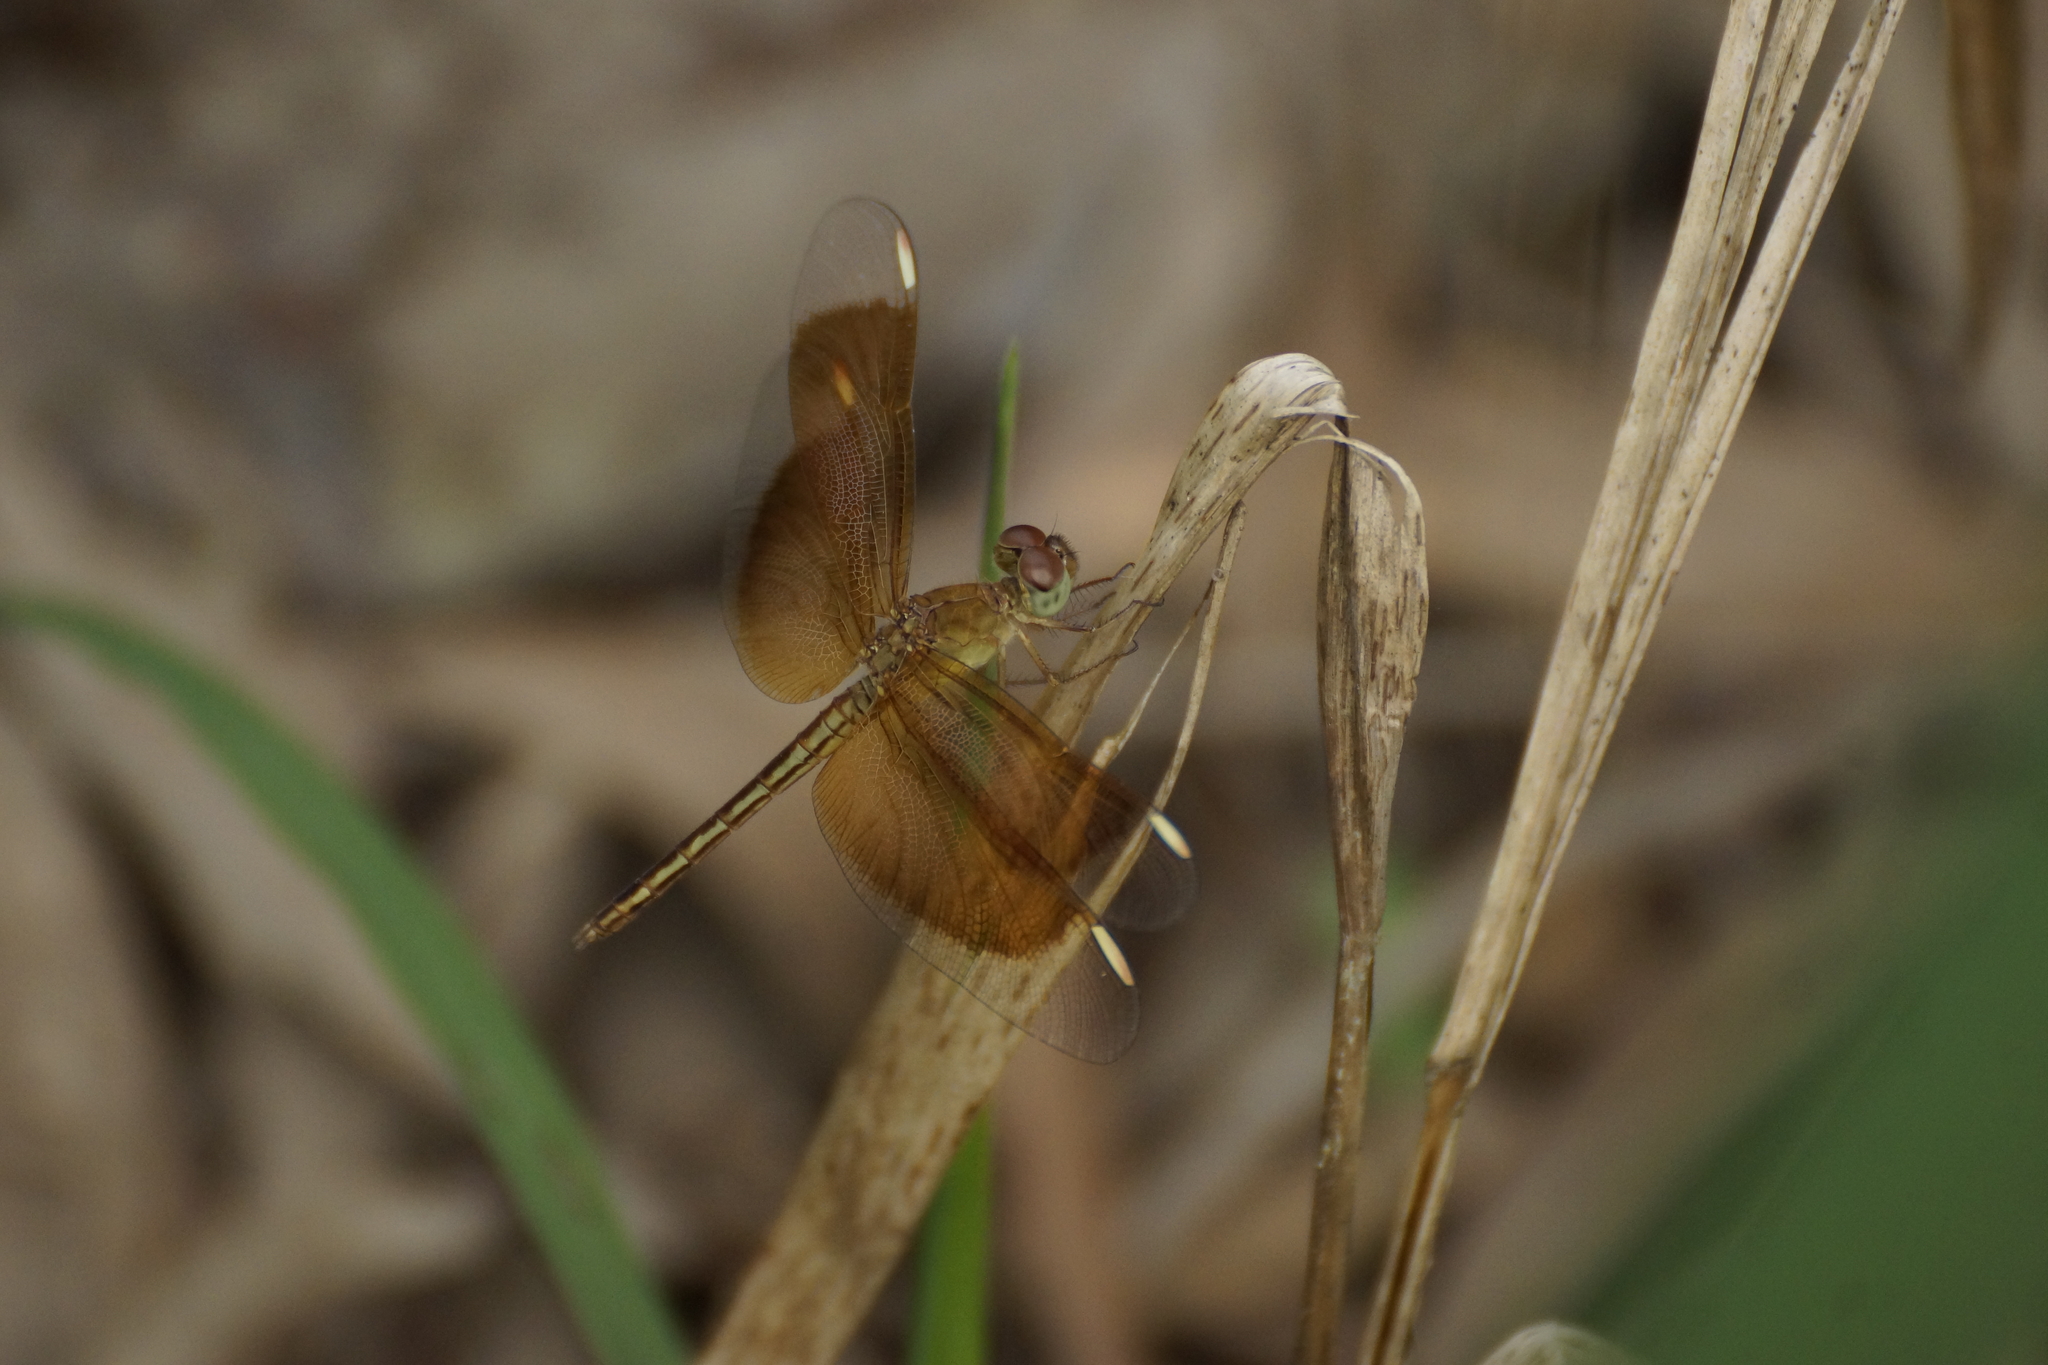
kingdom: Animalia
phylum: Arthropoda
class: Insecta
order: Odonata
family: Libellulidae
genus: Neurothemis
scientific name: Neurothemis stigmatizans
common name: Painted grasshawk
